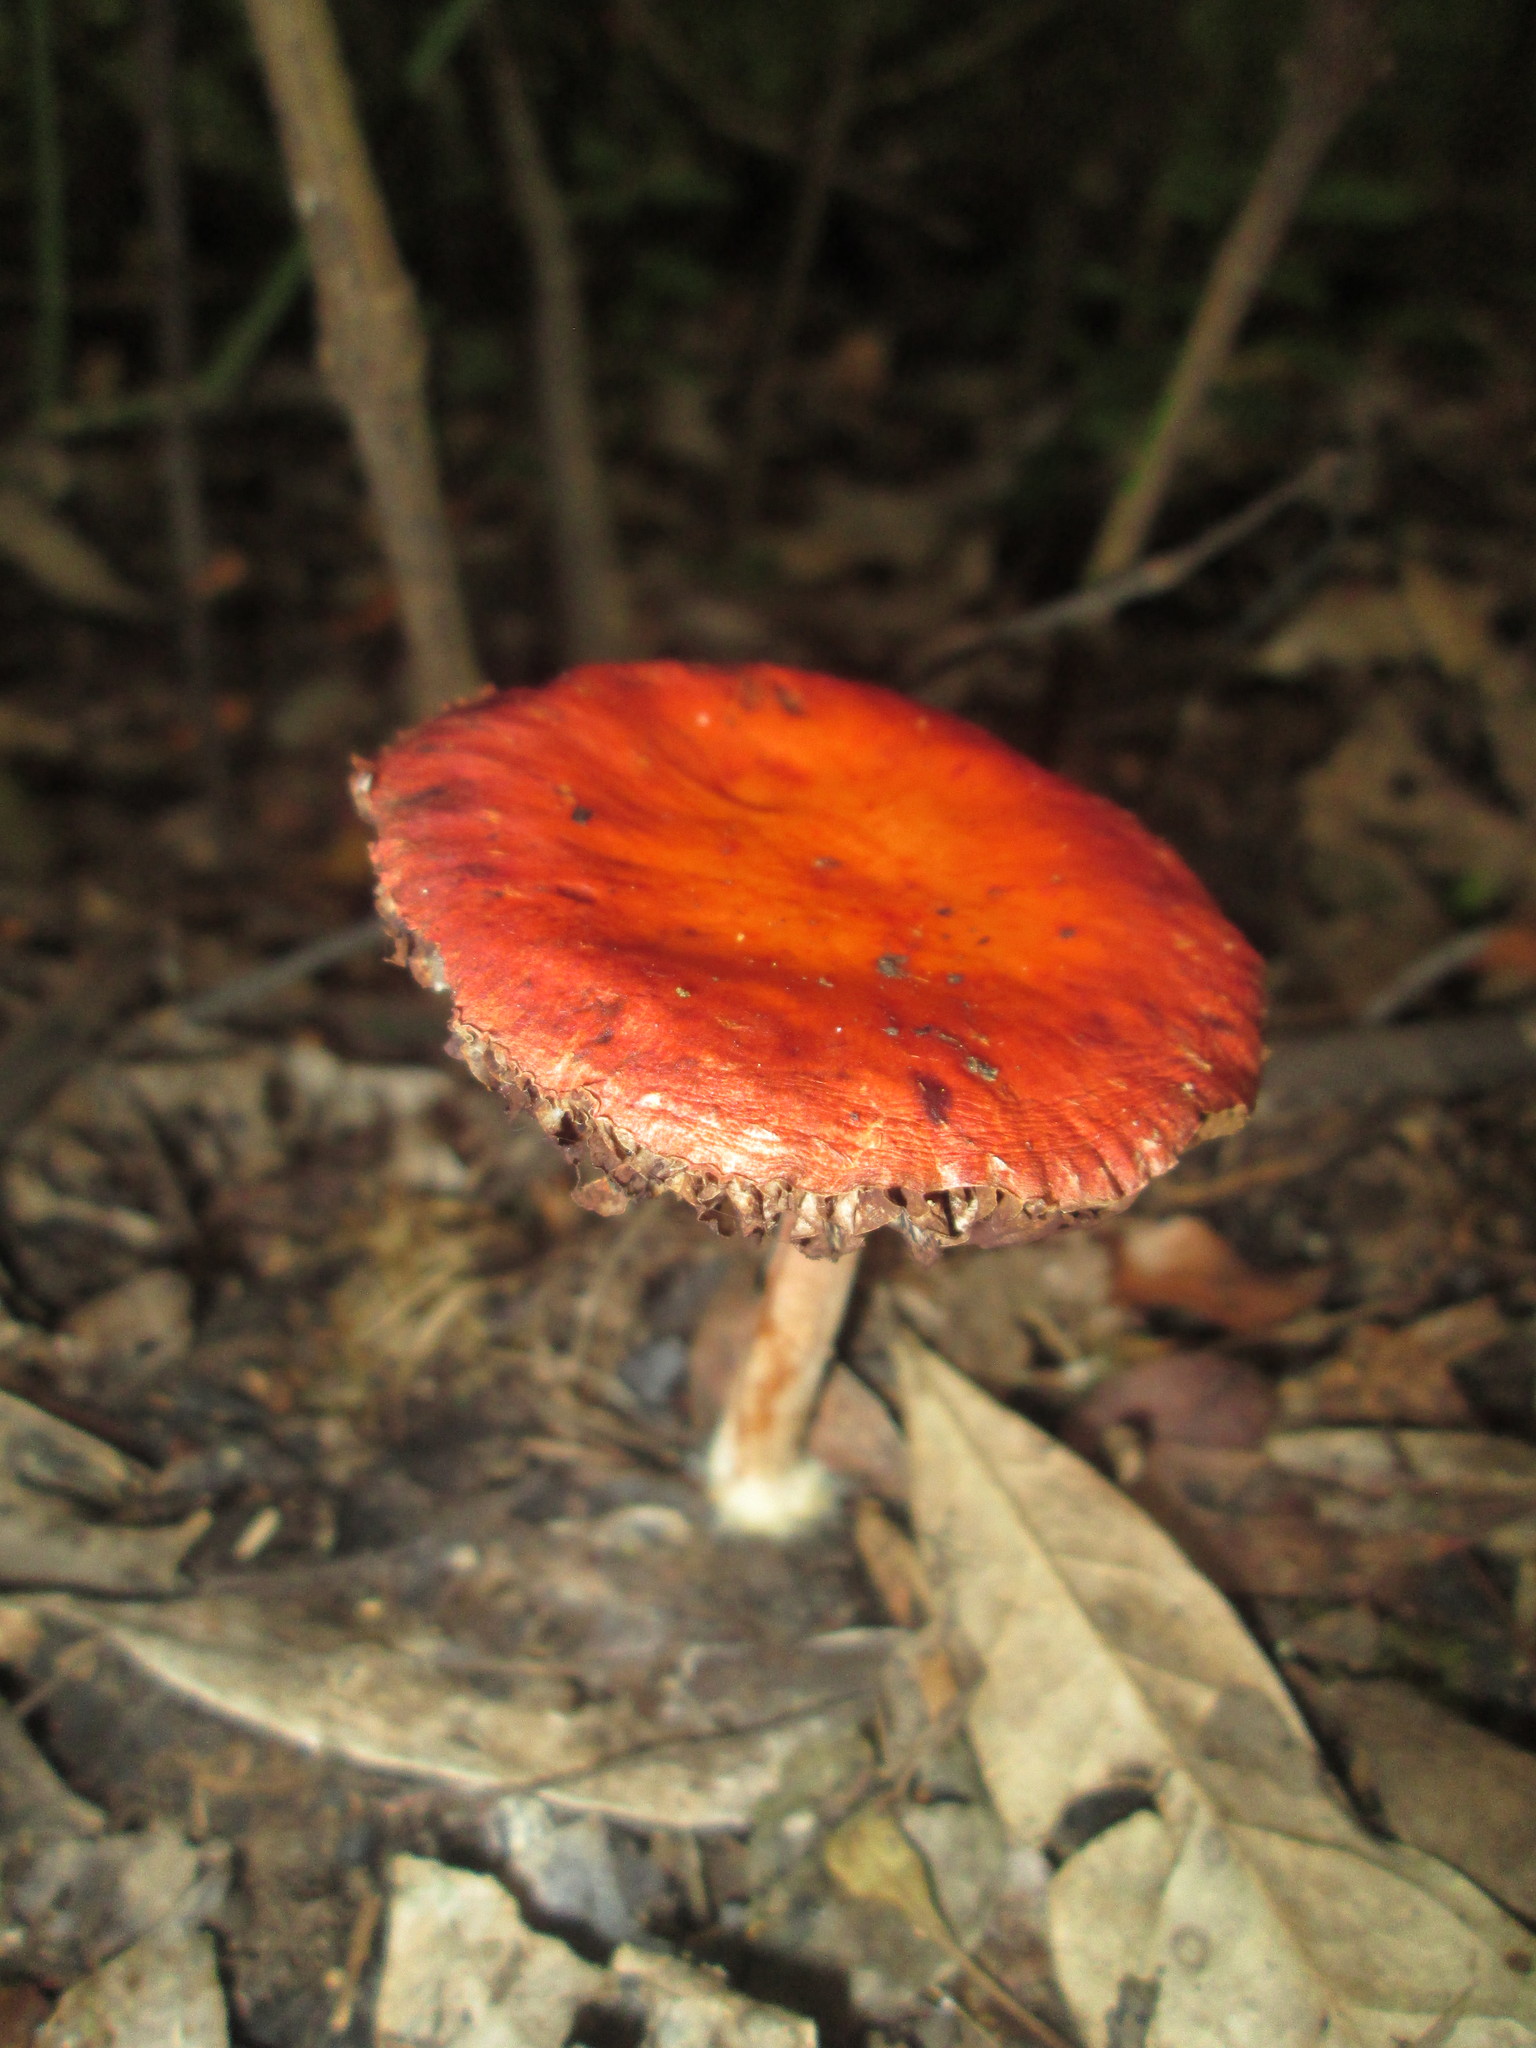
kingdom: Fungi
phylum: Basidiomycota
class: Agaricomycetes
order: Agaricales
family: Strophariaceae
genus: Leratiomyces
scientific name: Leratiomyces ceres
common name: Redlead roundhead
